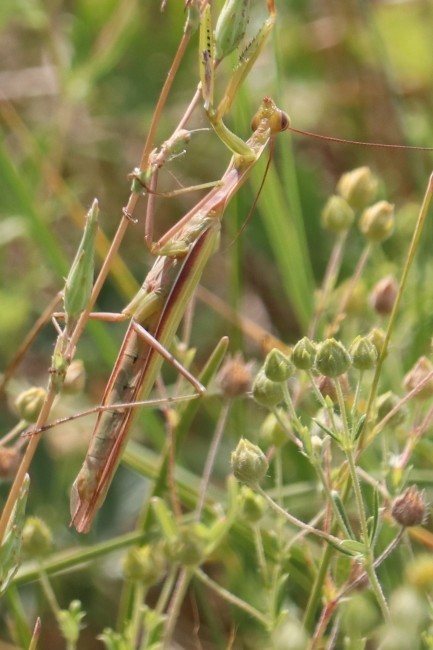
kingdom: Animalia
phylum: Arthropoda
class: Insecta
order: Mantodea
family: Mantidae
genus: Mantis
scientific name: Mantis religiosa
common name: Praying mantis
